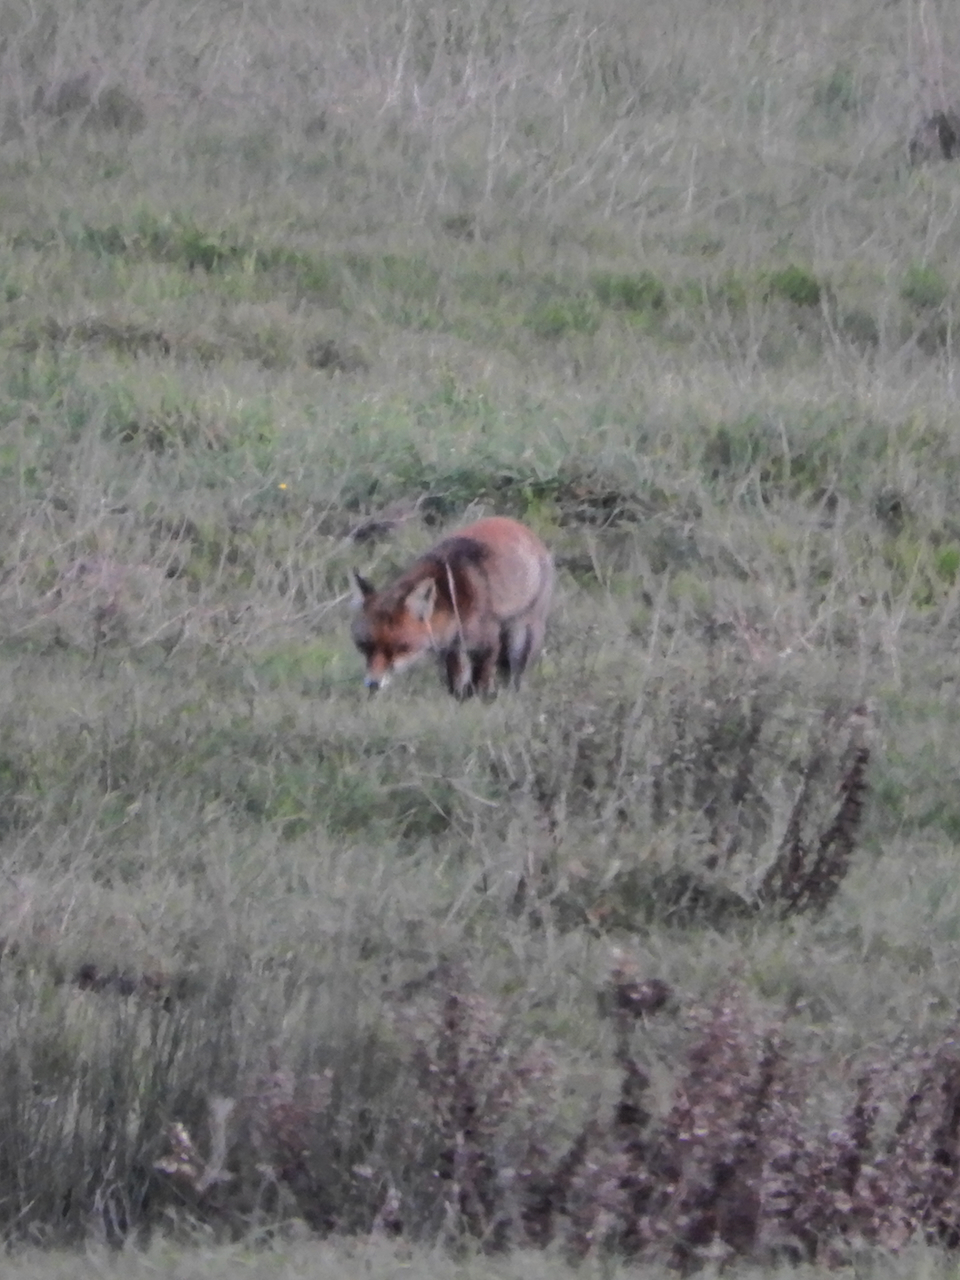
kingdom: Animalia
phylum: Chordata
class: Mammalia
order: Carnivora
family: Canidae
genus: Vulpes
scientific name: Vulpes vulpes
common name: Red fox
